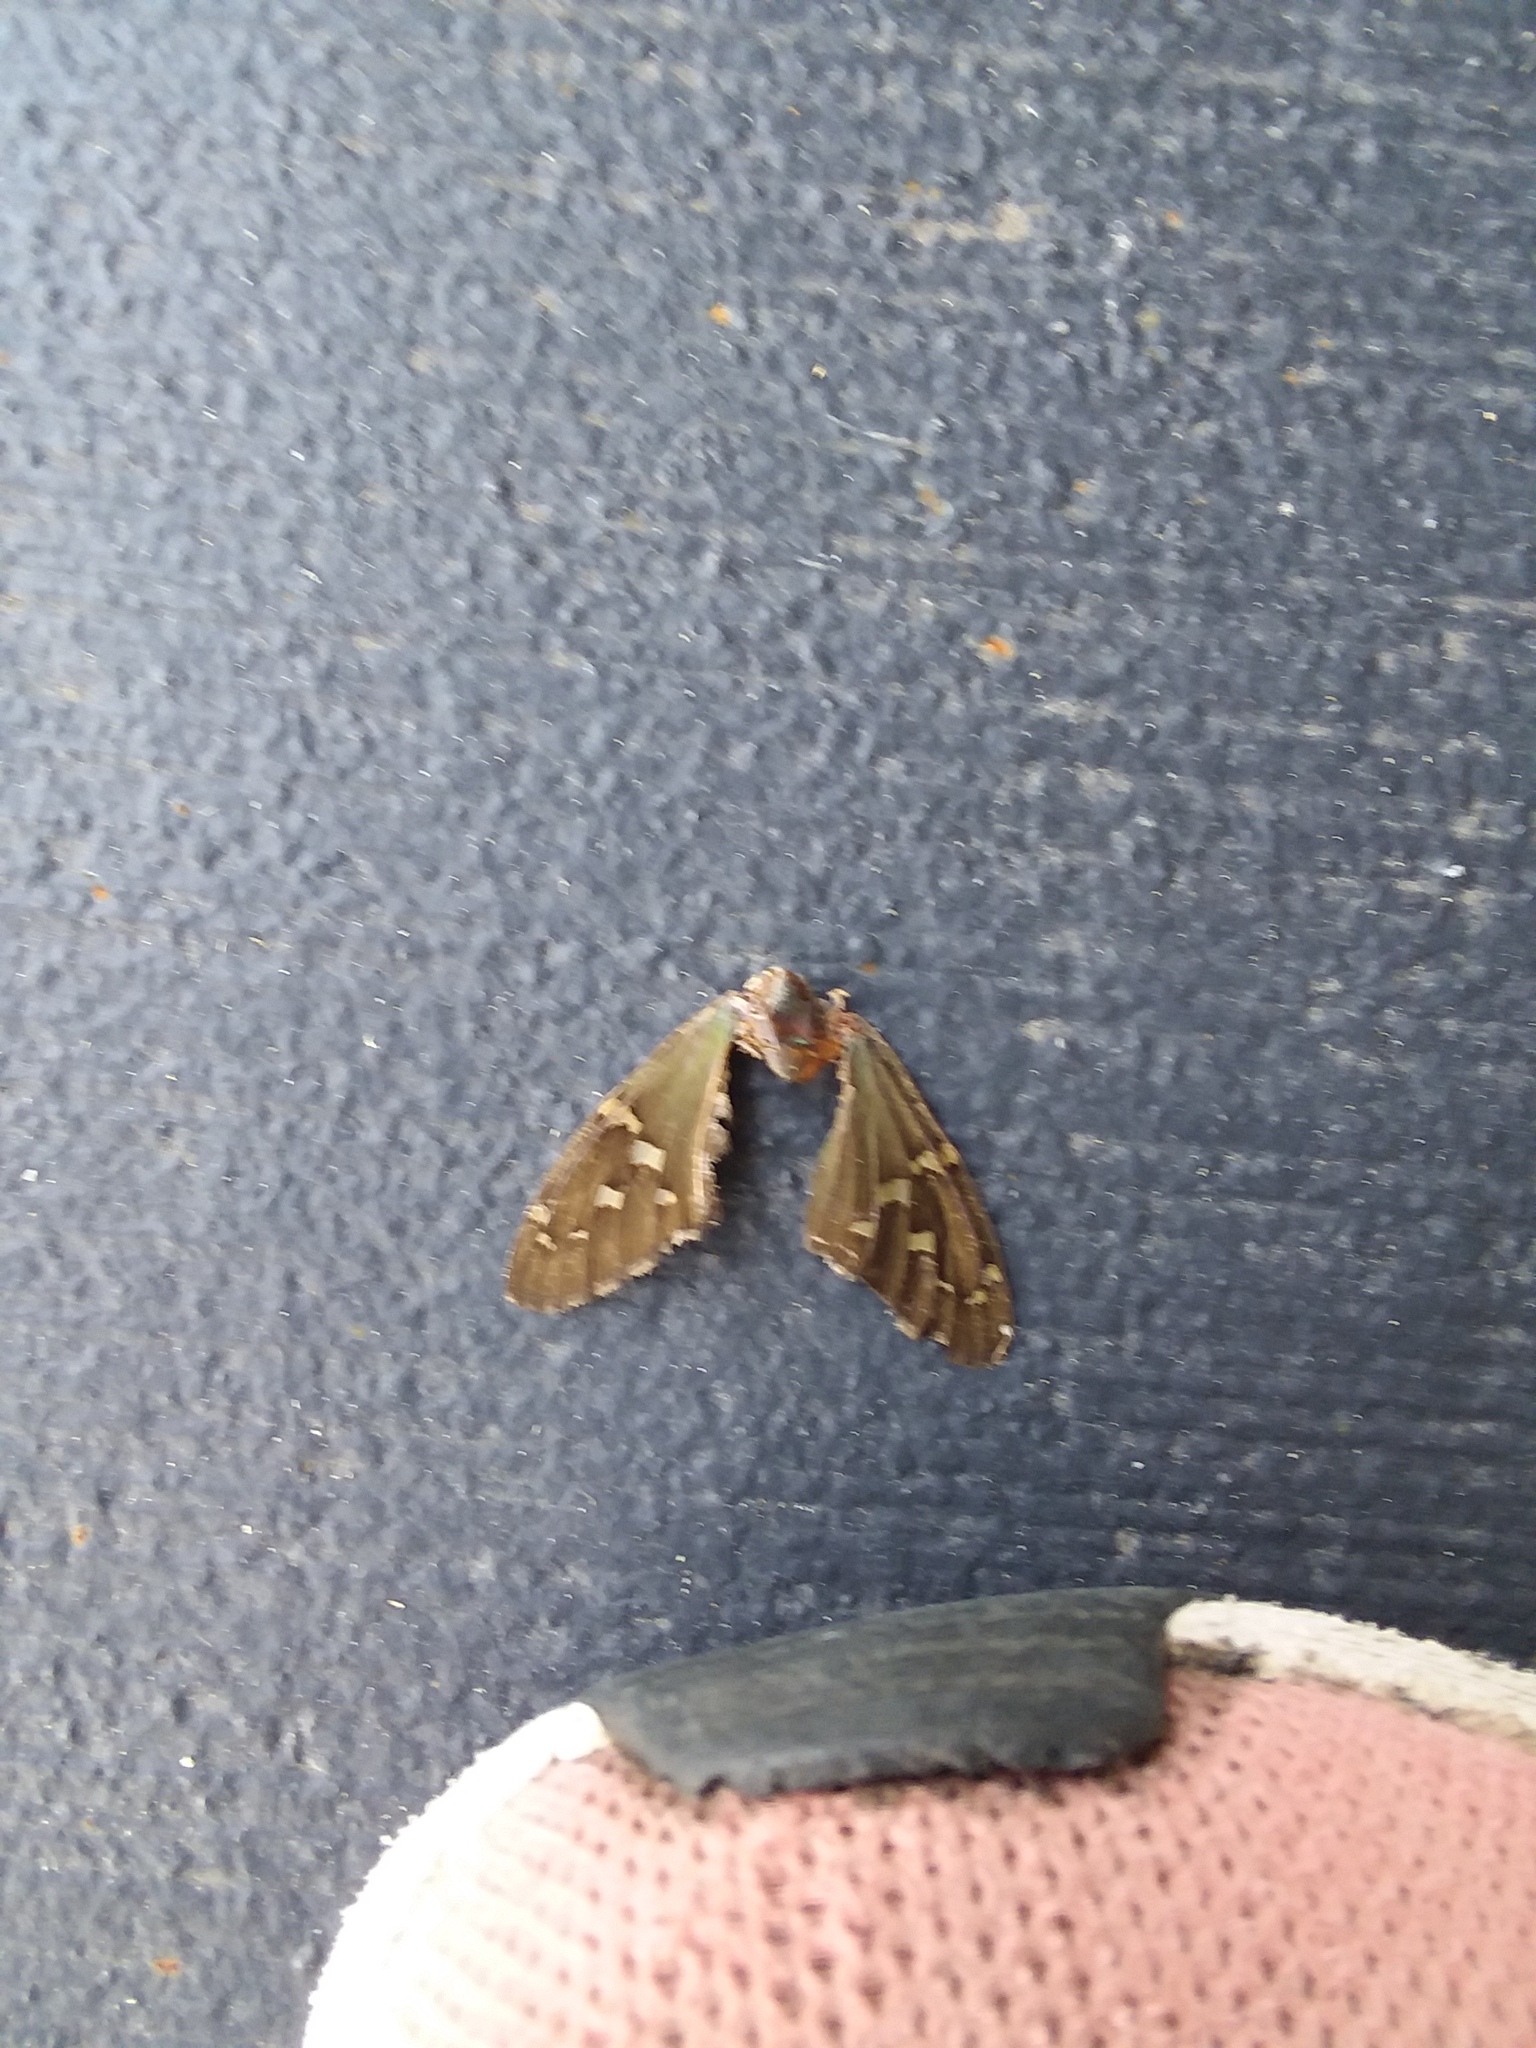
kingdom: Animalia
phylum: Arthropoda
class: Insecta
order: Lepidoptera
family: Hesperiidae
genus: Urbanus
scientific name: Urbanus proteus
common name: Long-tailed skipper
